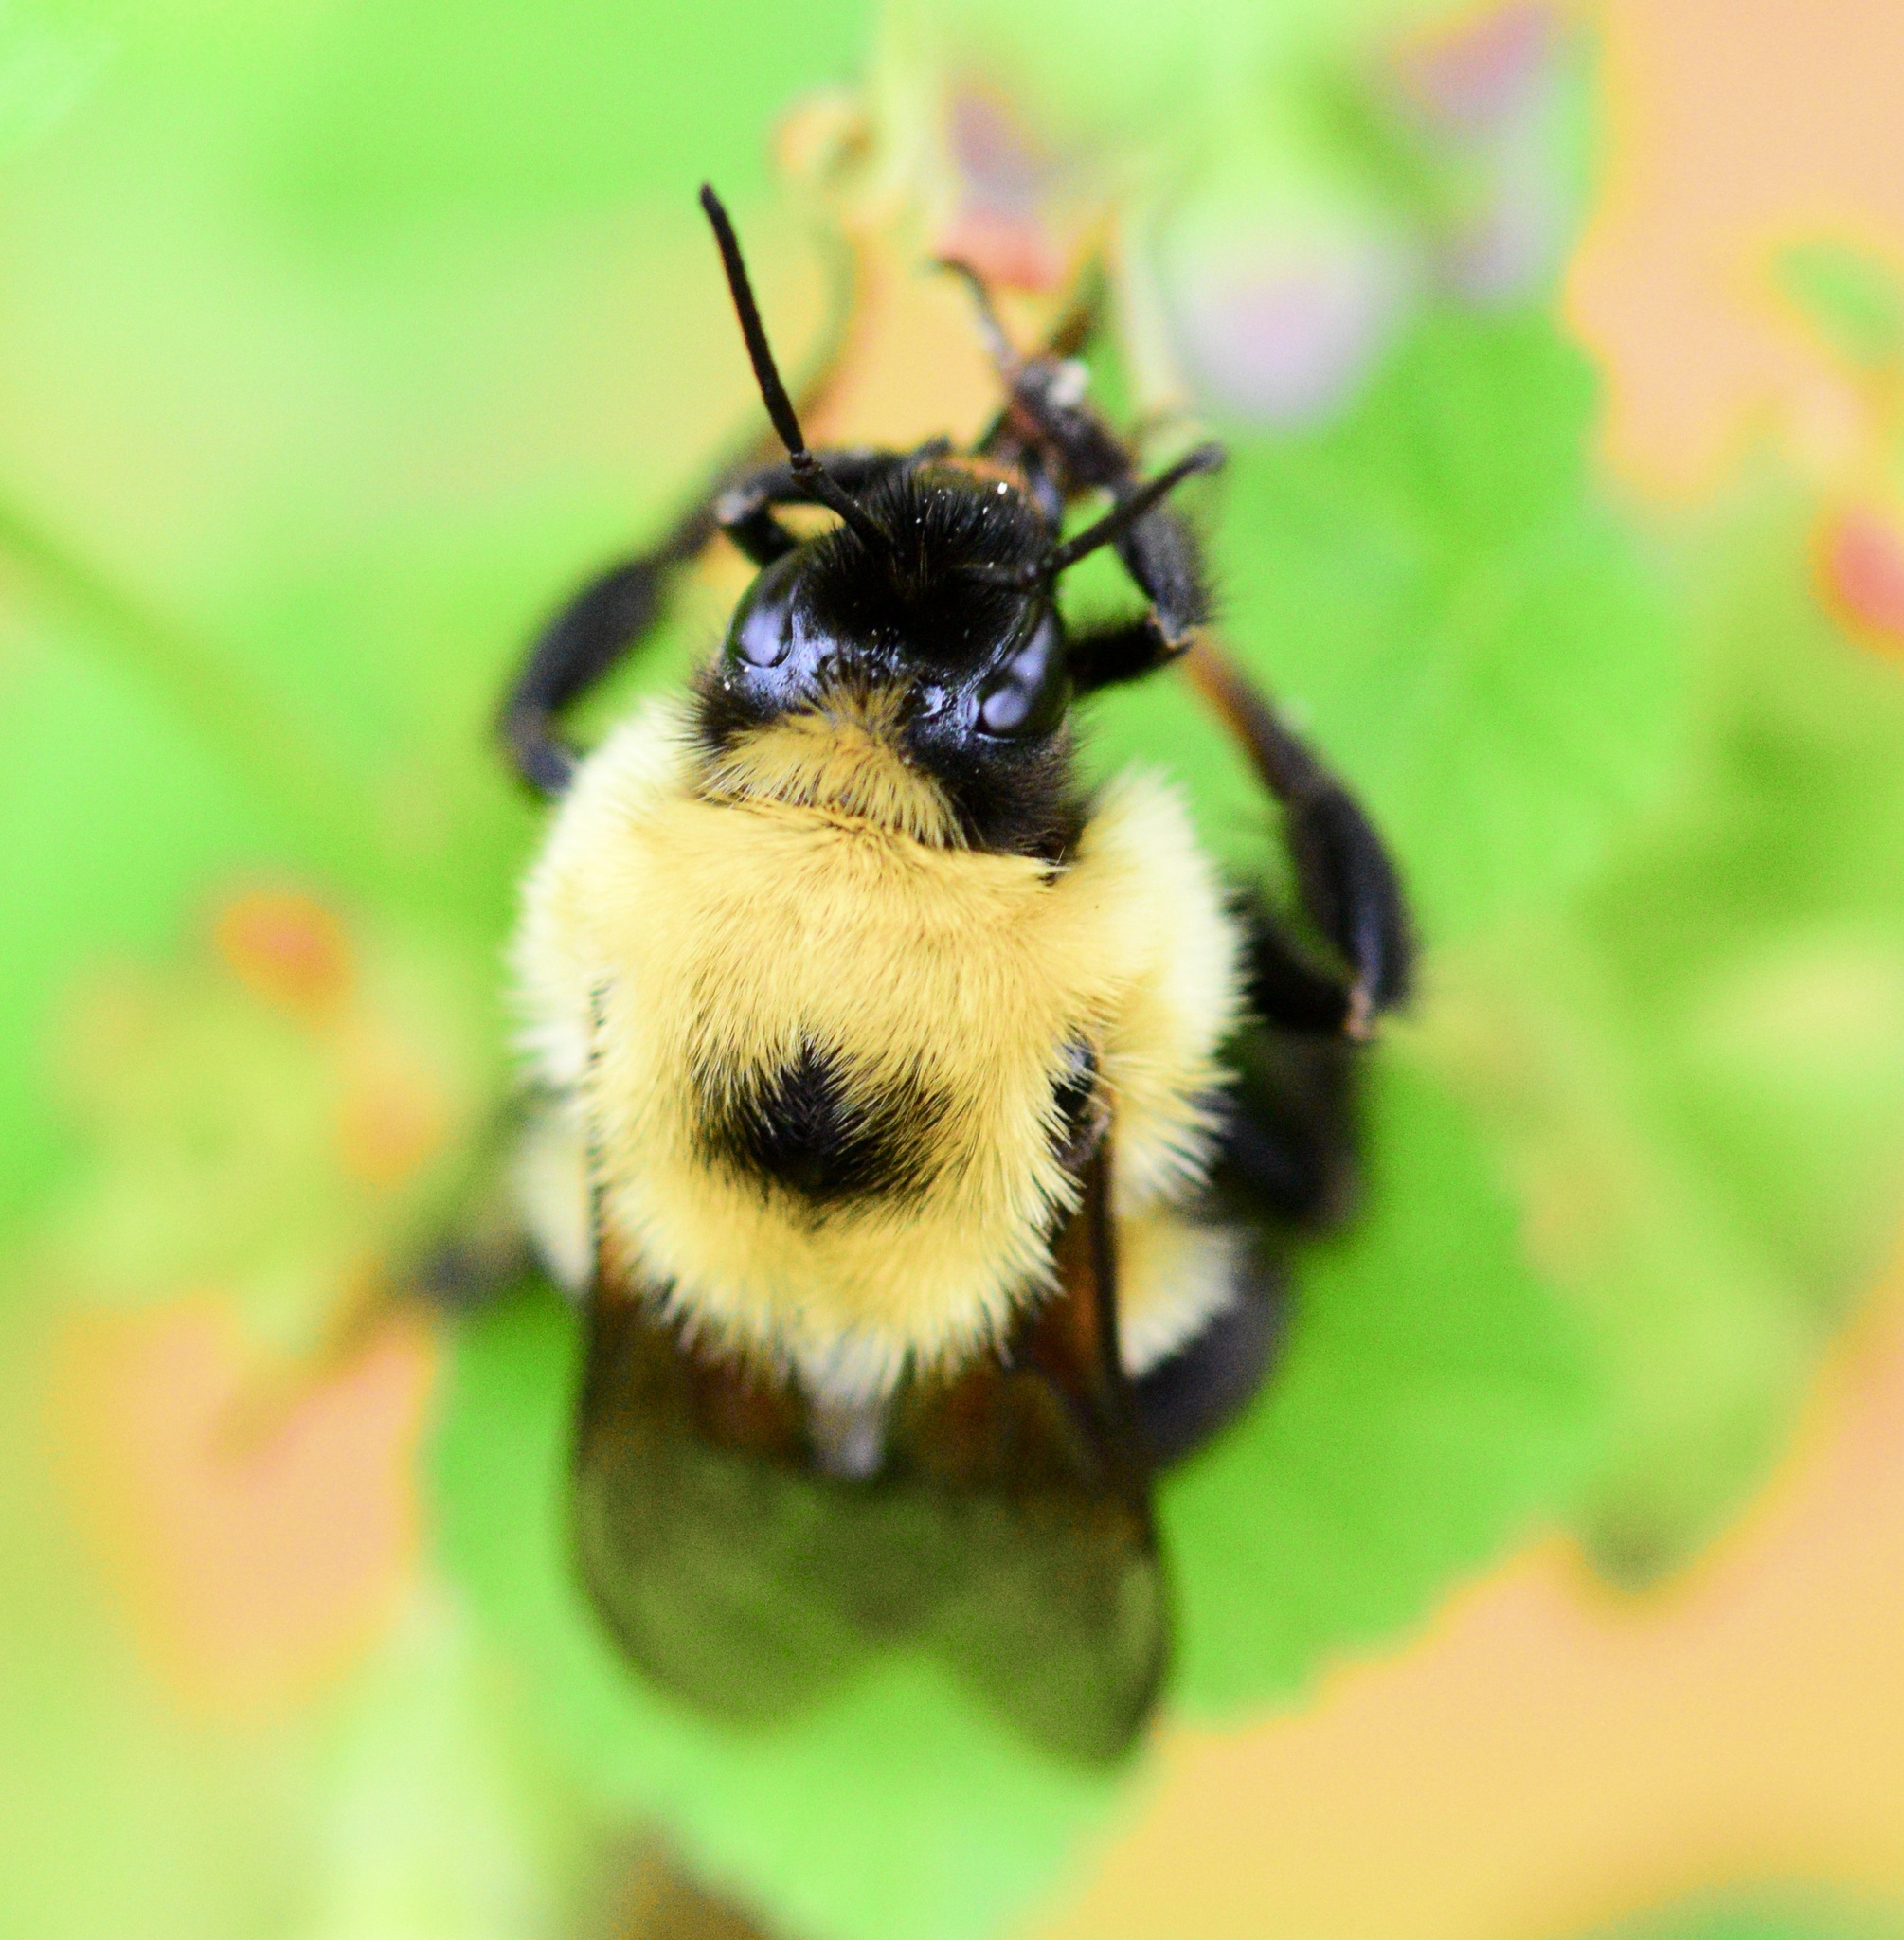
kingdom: Animalia
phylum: Arthropoda
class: Insecta
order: Hymenoptera
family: Apidae
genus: Bombus
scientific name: Bombus bimaculatus
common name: Two-spotted bumble bee
